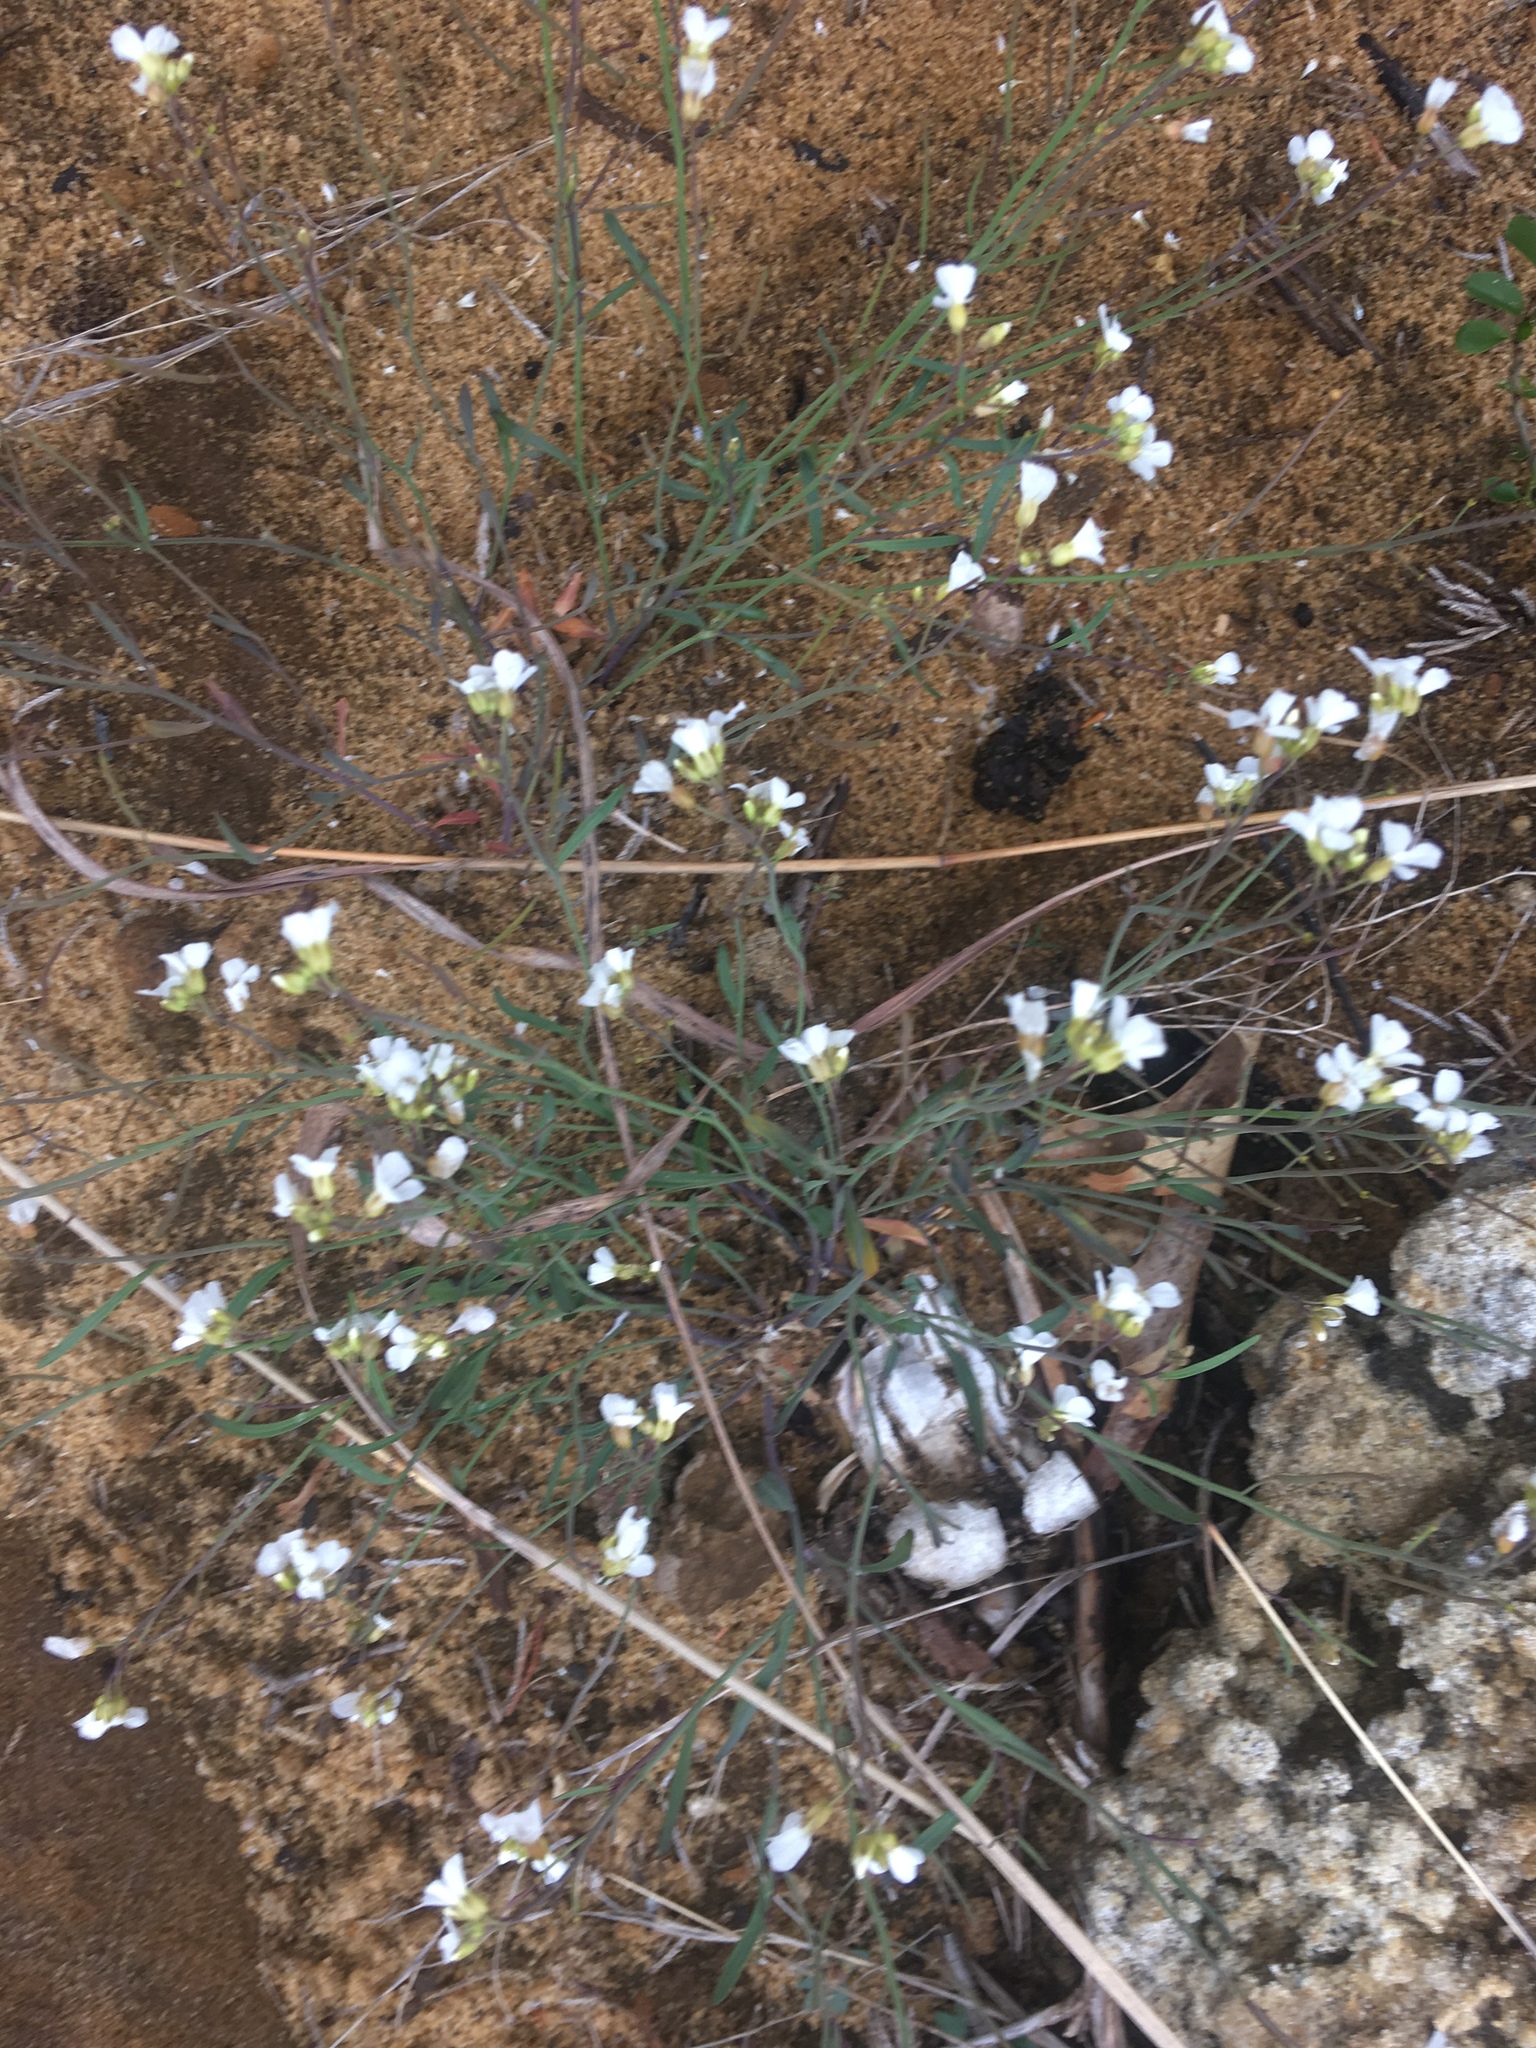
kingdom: Plantae
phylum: Tracheophyta
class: Magnoliopsida
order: Brassicales
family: Brassicaceae
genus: Arabidopsis
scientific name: Arabidopsis lyrata
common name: Lyrate rockcress
